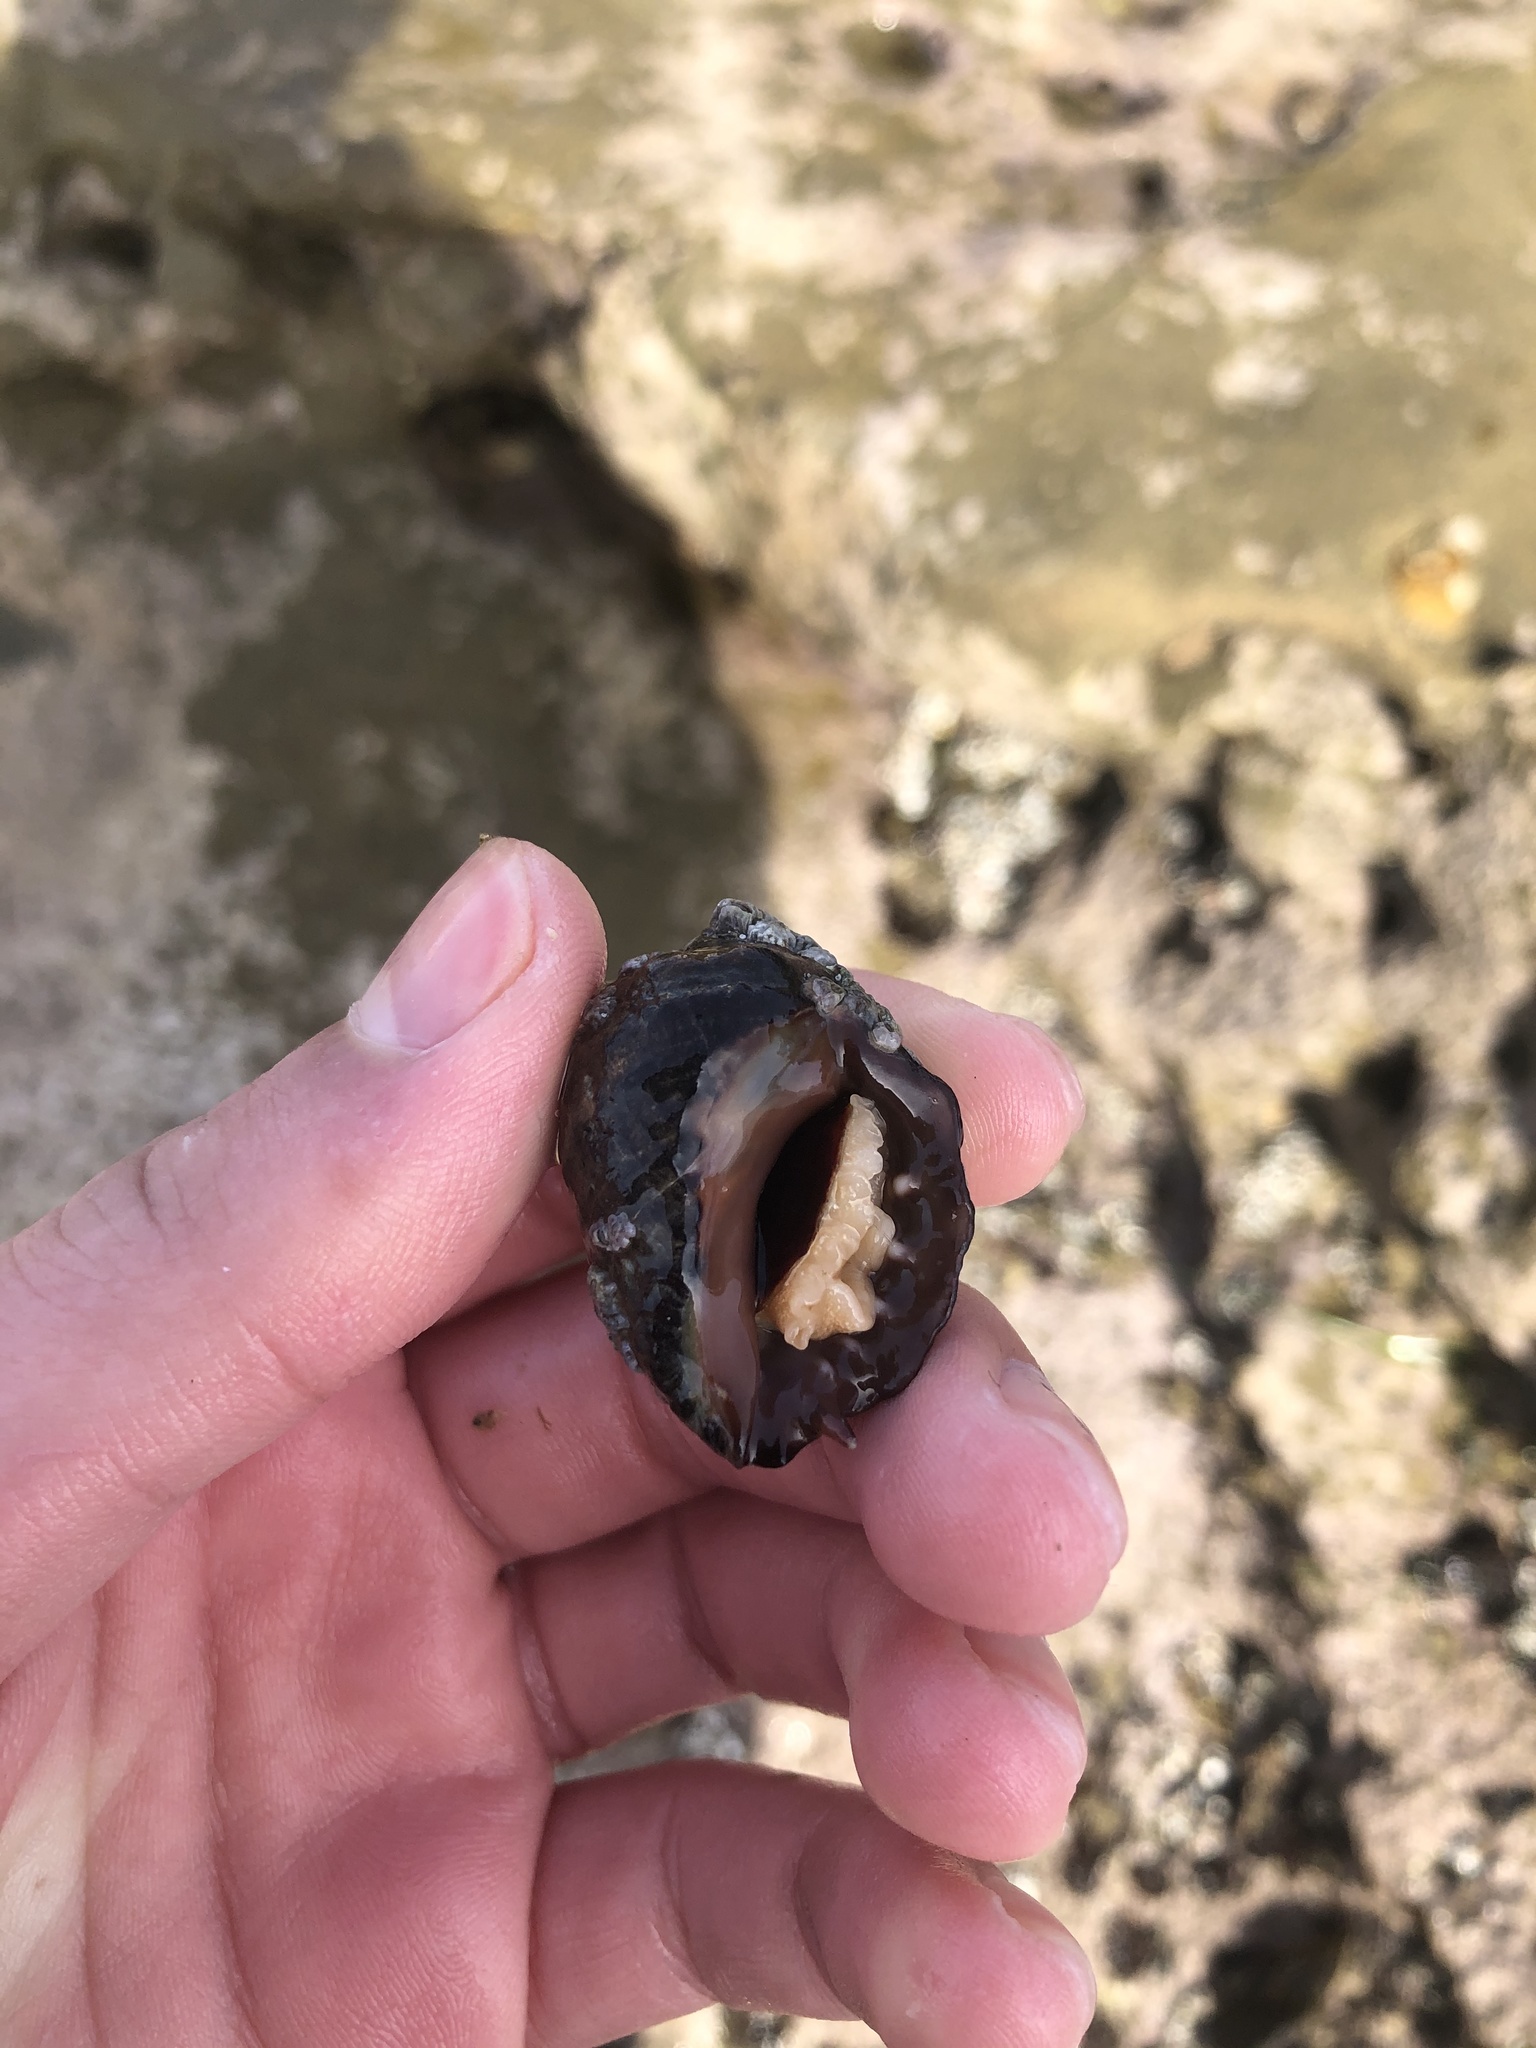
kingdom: Animalia
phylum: Mollusca
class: Gastropoda
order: Neogastropoda
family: Muricidae
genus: Mexacanthina
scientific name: Mexacanthina lugubris
